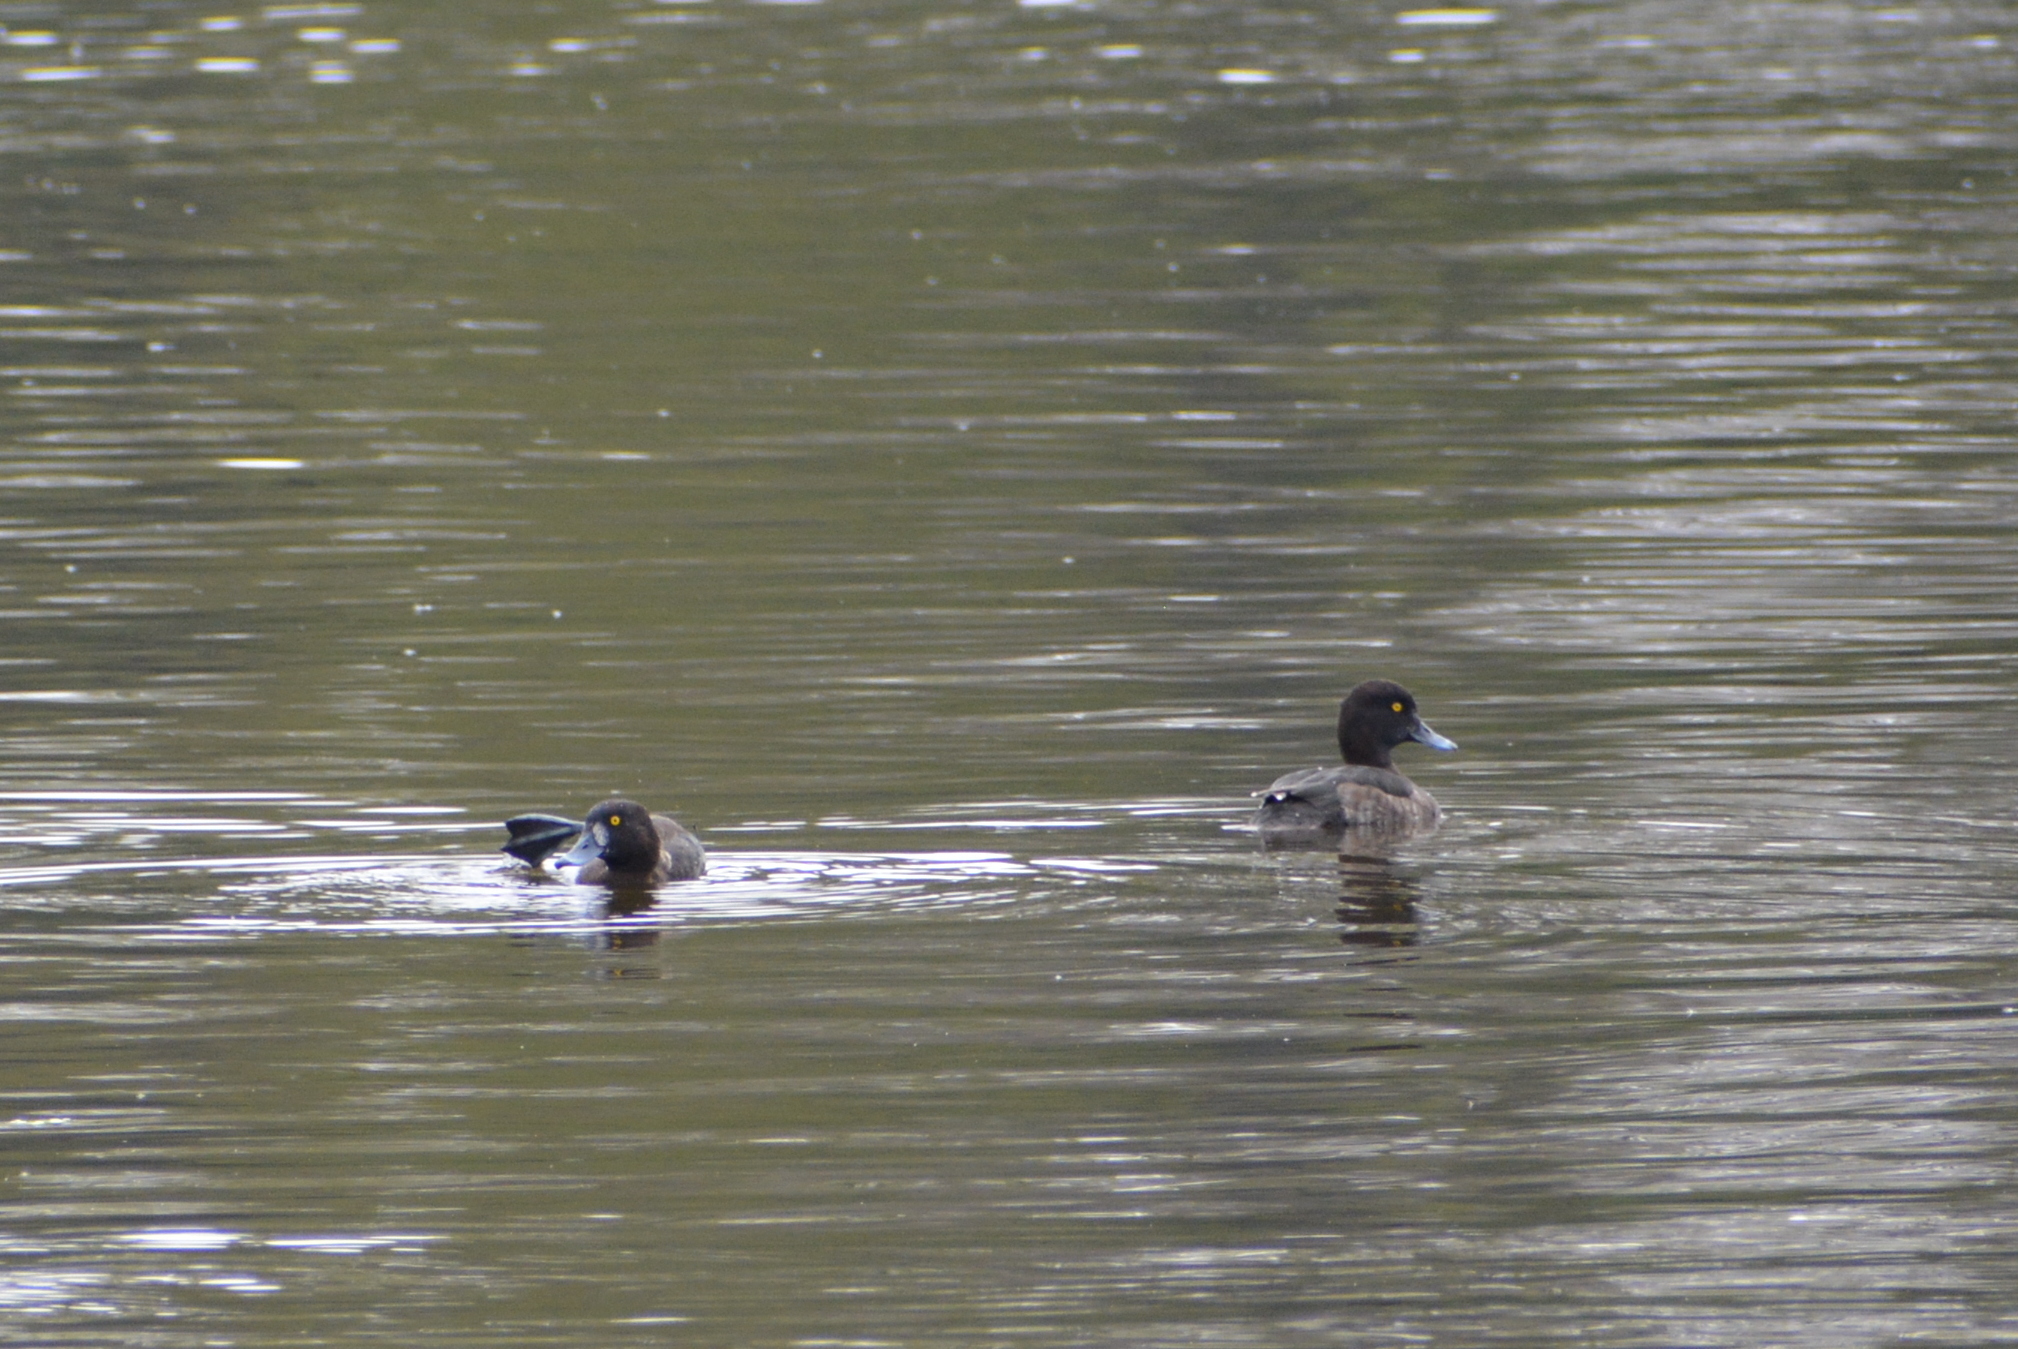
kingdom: Animalia
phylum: Chordata
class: Aves
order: Anseriformes
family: Anatidae
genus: Aythya
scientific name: Aythya fuligula
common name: Tufted duck
